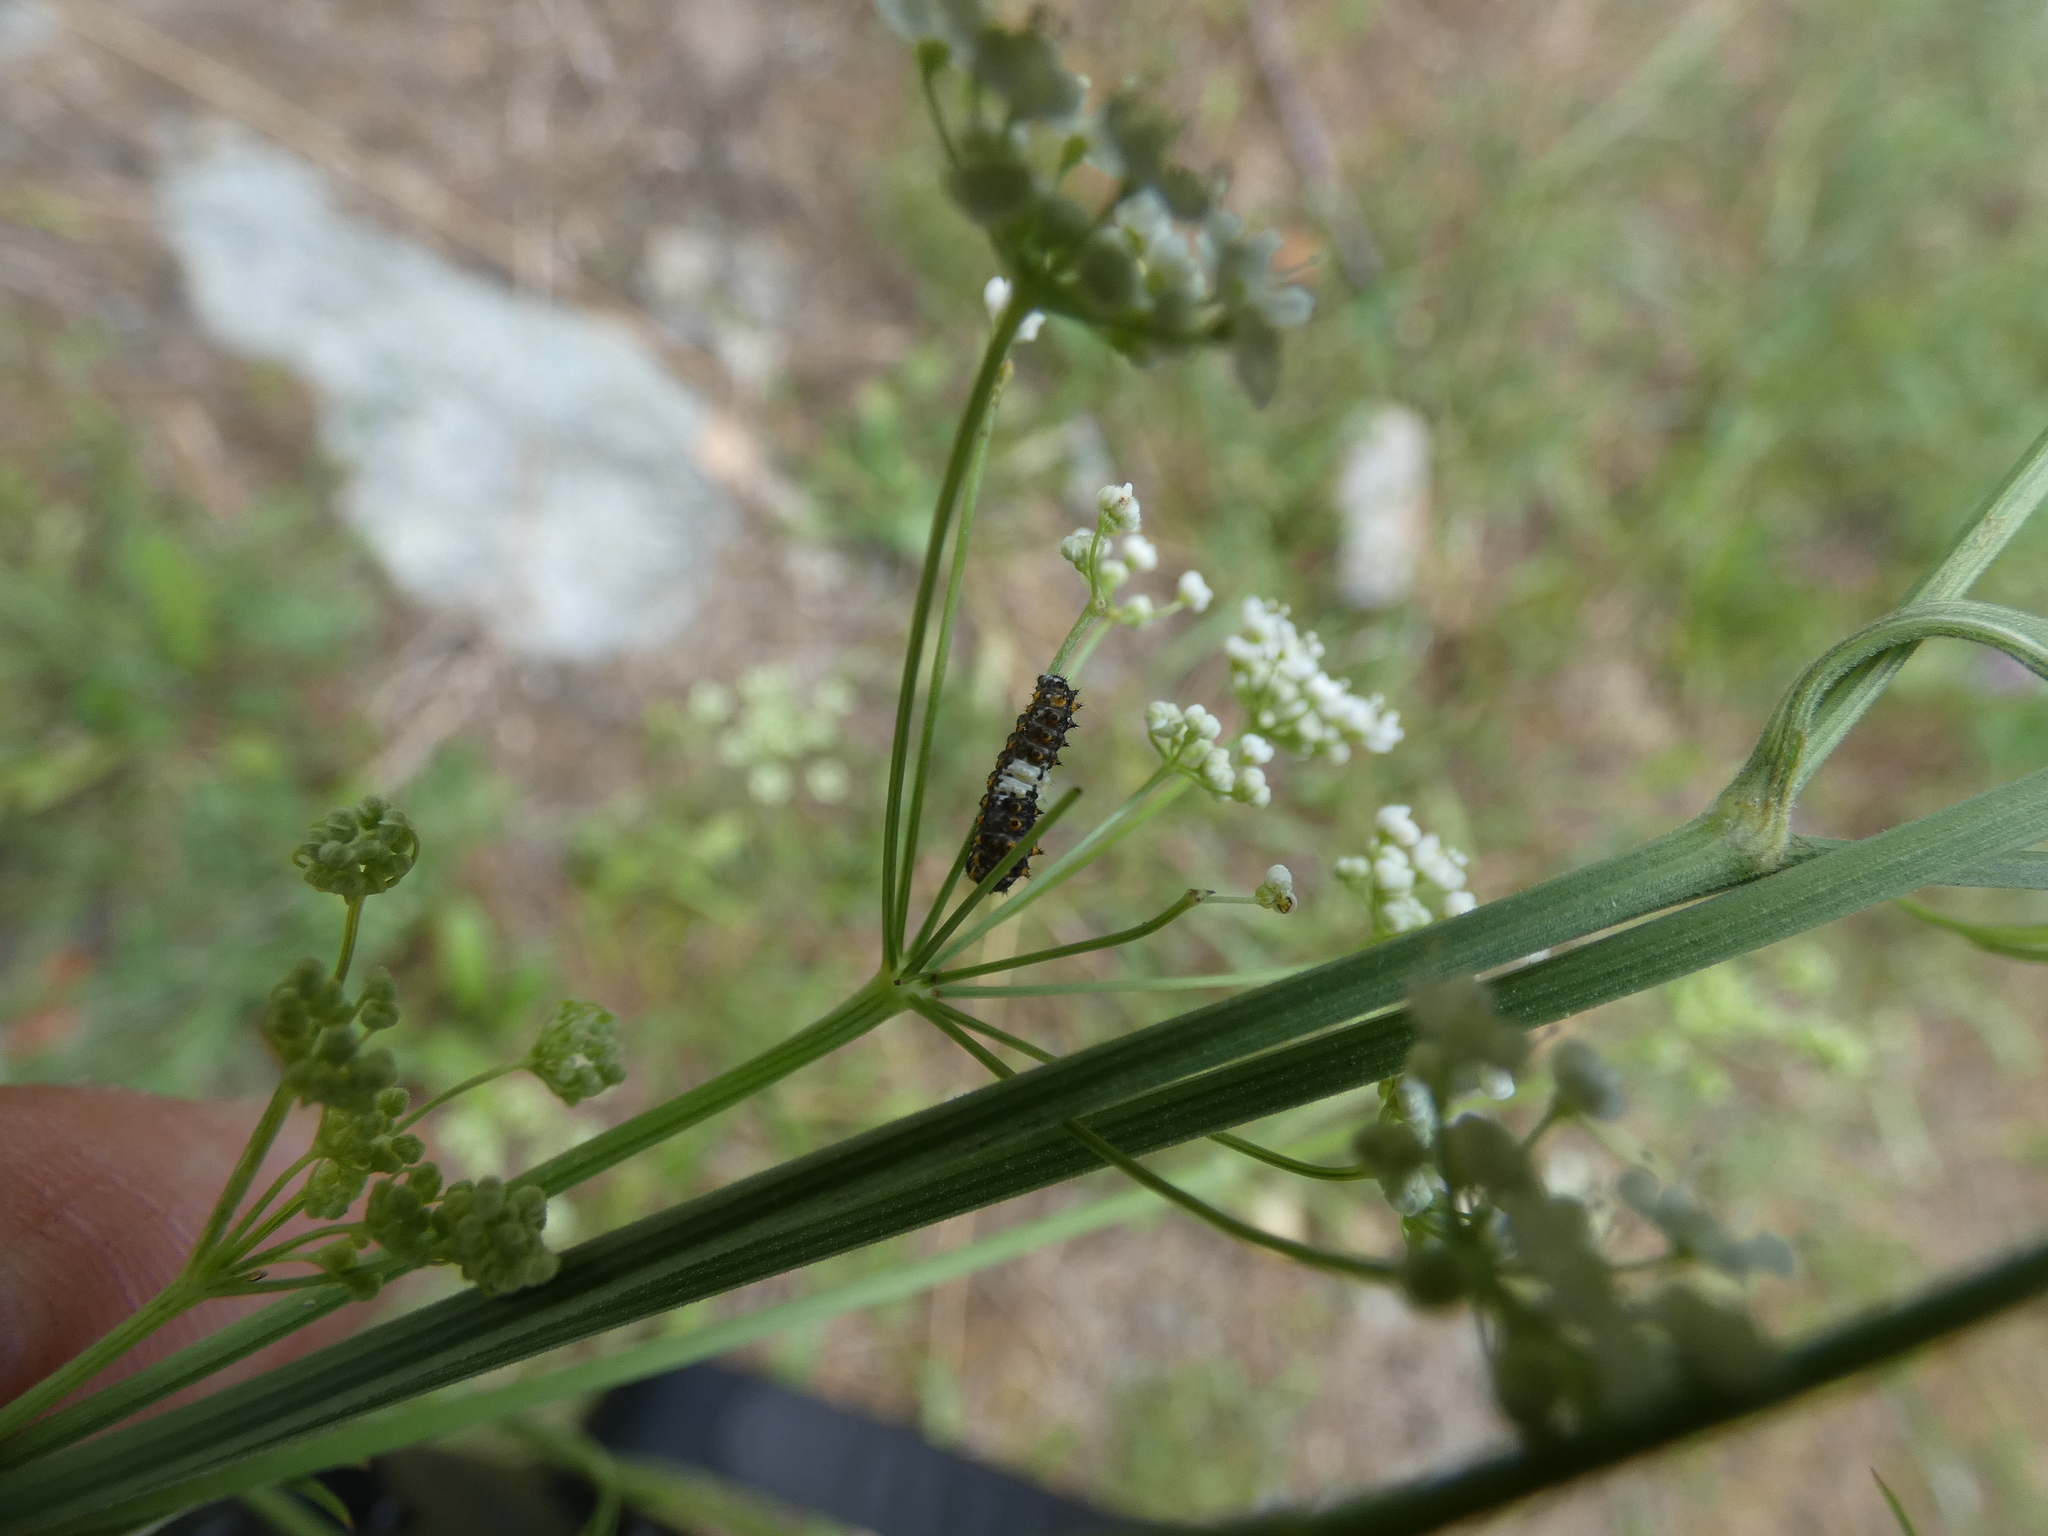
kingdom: Animalia
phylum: Arthropoda
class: Insecta
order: Lepidoptera
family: Papilionidae
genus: Papilio
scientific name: Papilio machaon
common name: Swallowtail
